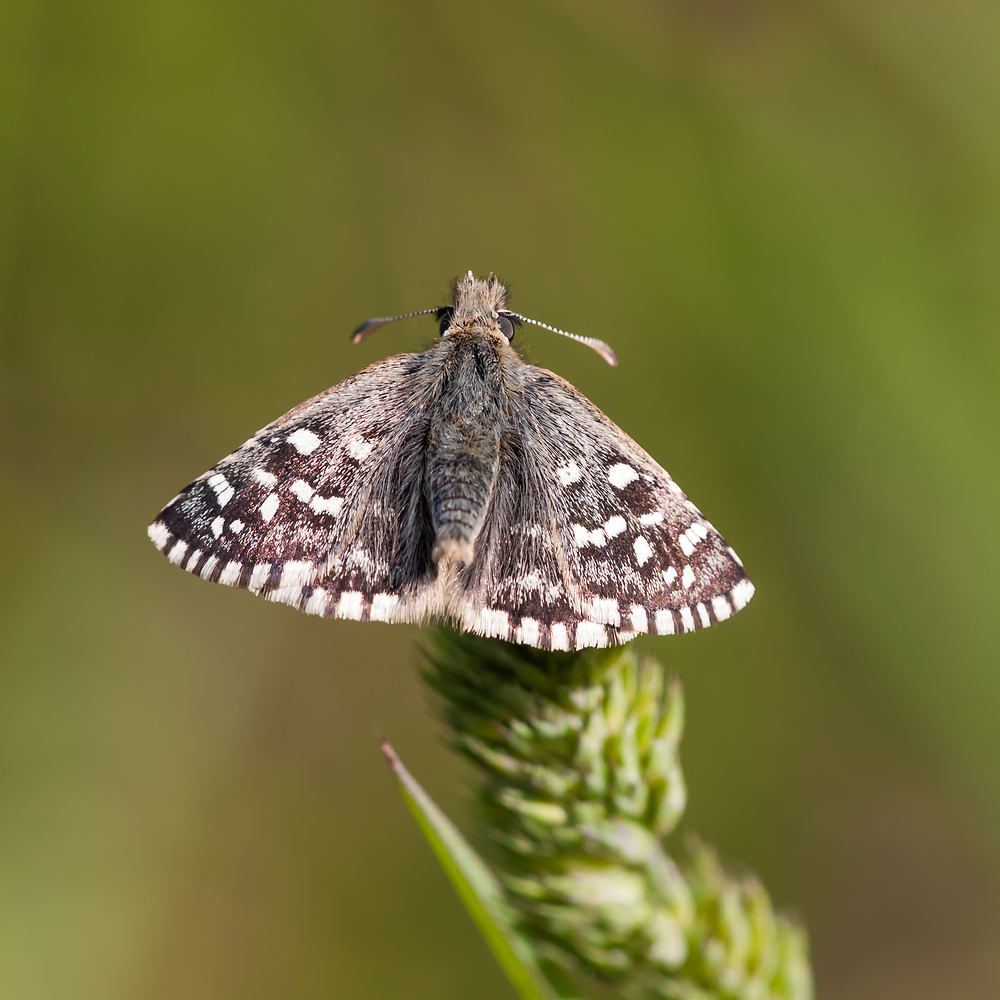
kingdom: Animalia
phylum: Arthropoda
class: Insecta
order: Lepidoptera
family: Hesperiidae
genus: Pyrgus
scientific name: Pyrgus malvoides
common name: Southern grizzled skipper
